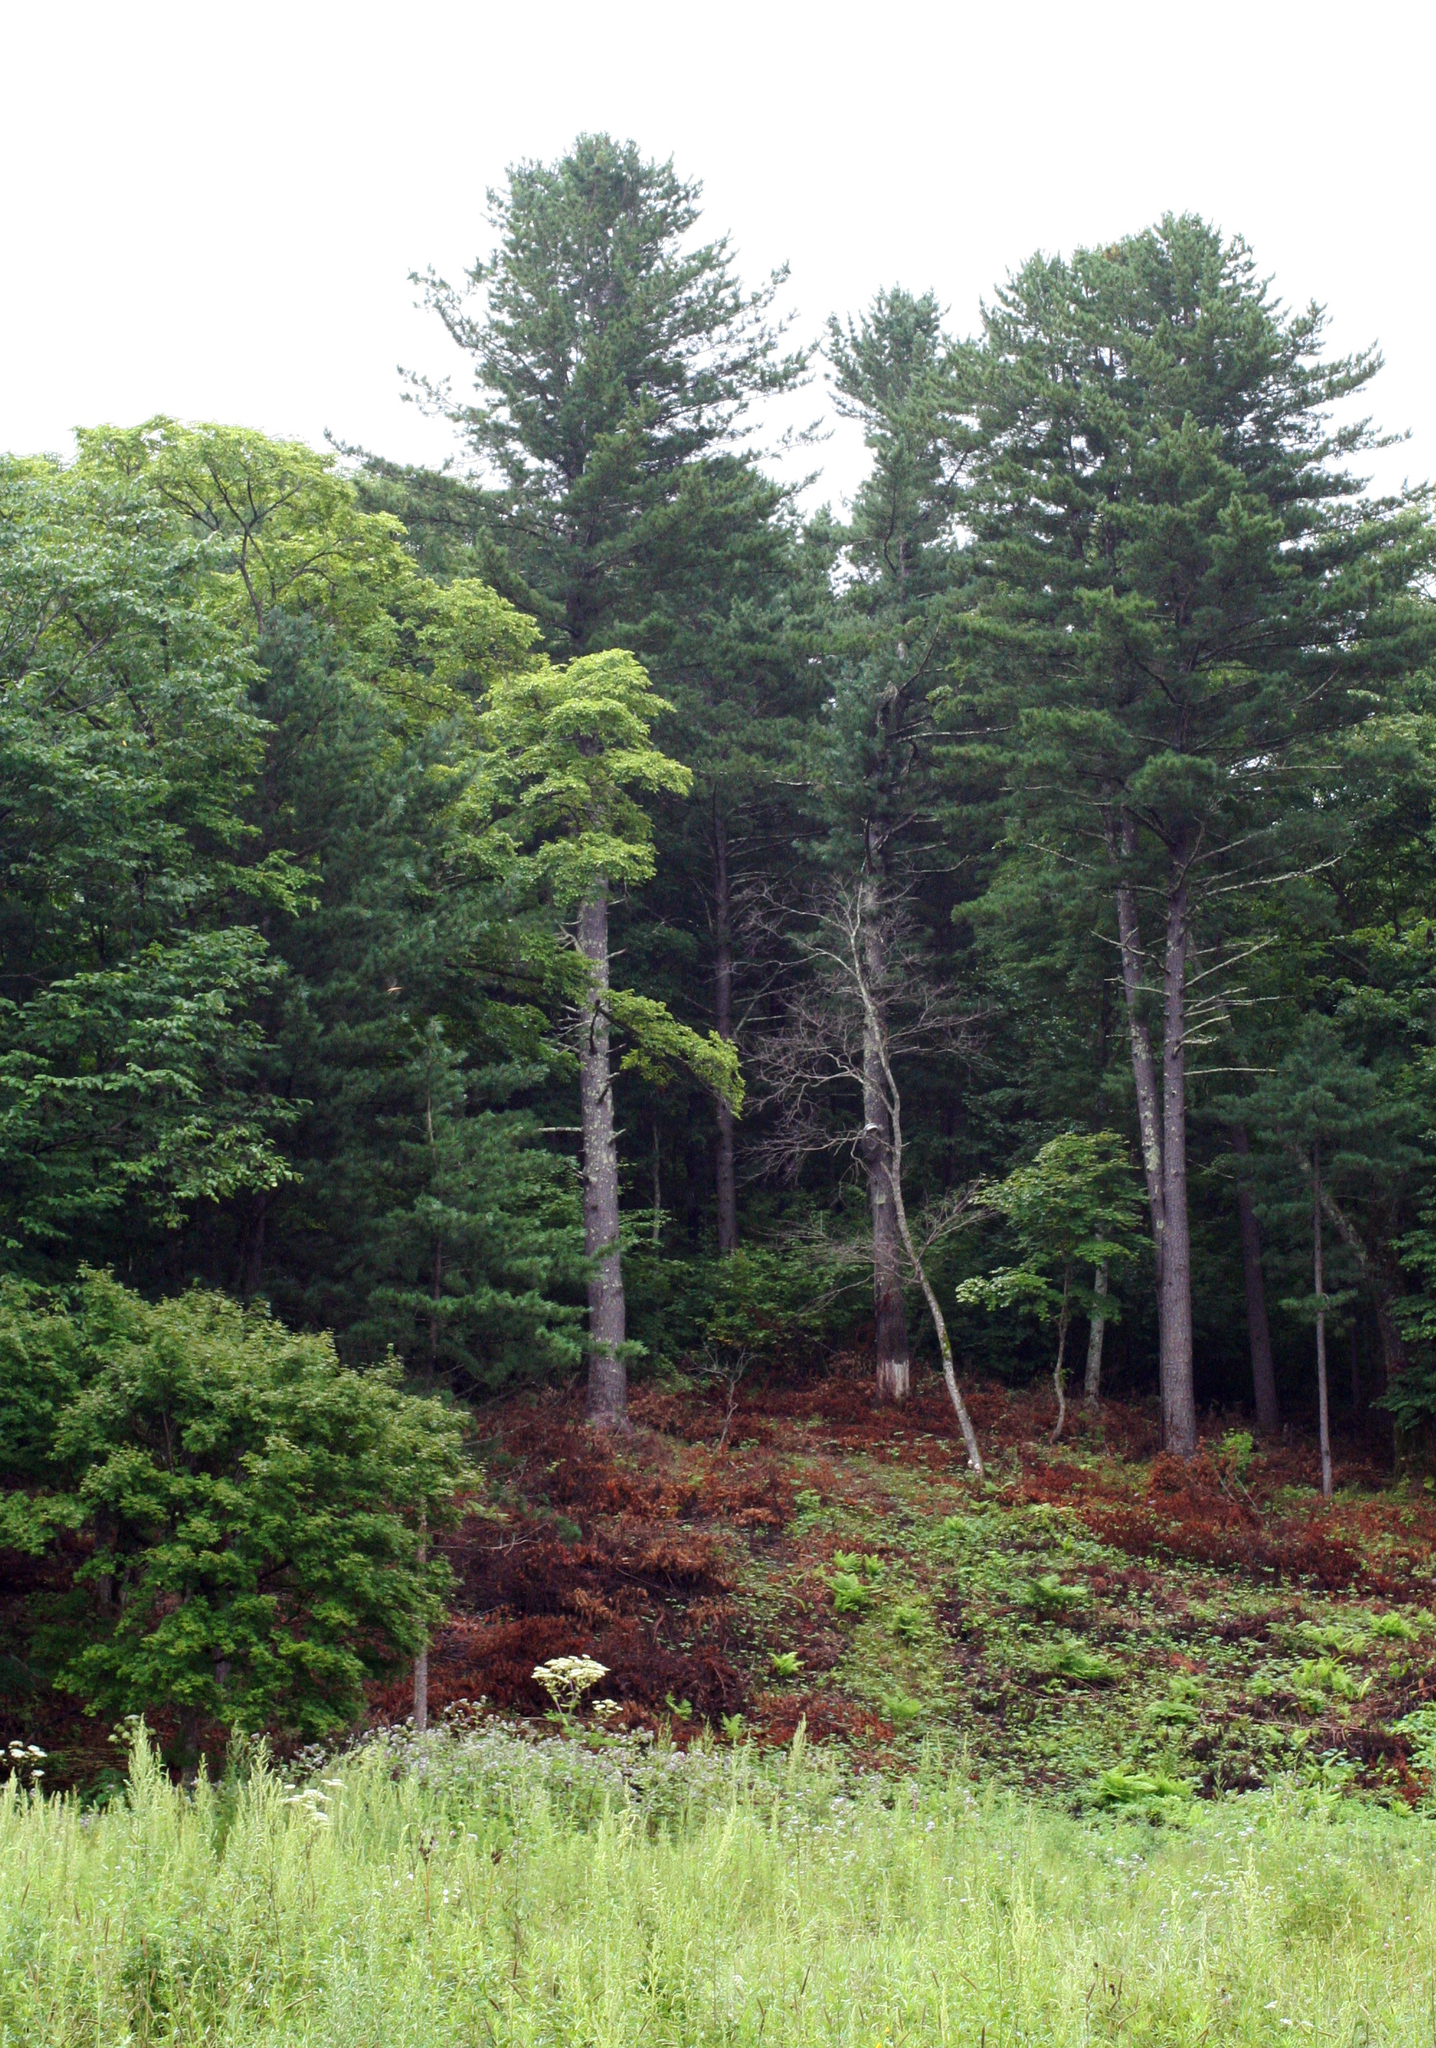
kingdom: Plantae
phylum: Tracheophyta
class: Pinopsida
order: Pinales
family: Pinaceae
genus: Pinus
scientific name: Pinus koraiensis
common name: Korean pine
